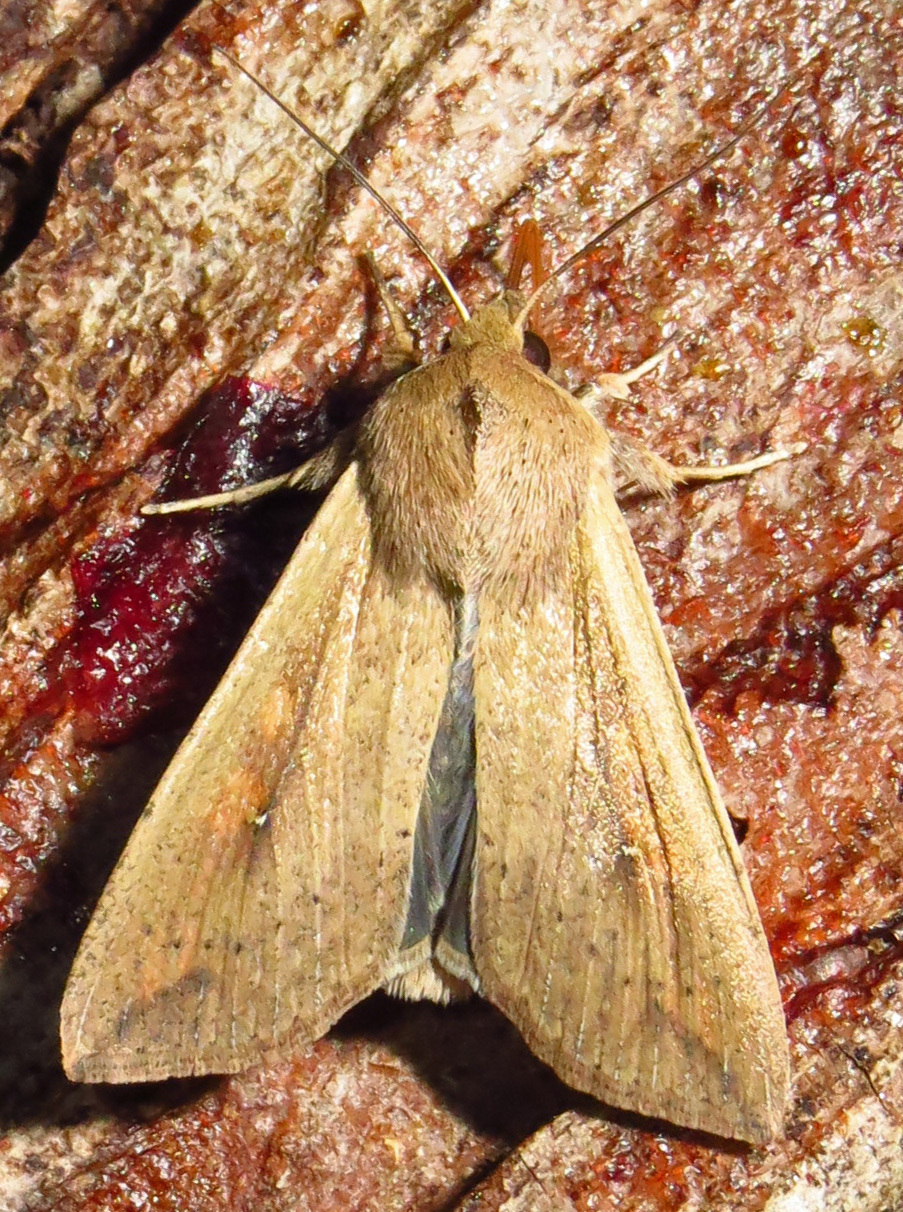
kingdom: Animalia
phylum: Arthropoda
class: Insecta
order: Lepidoptera
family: Noctuidae
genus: Mythimna
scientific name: Mythimna unipuncta
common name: White-speck
